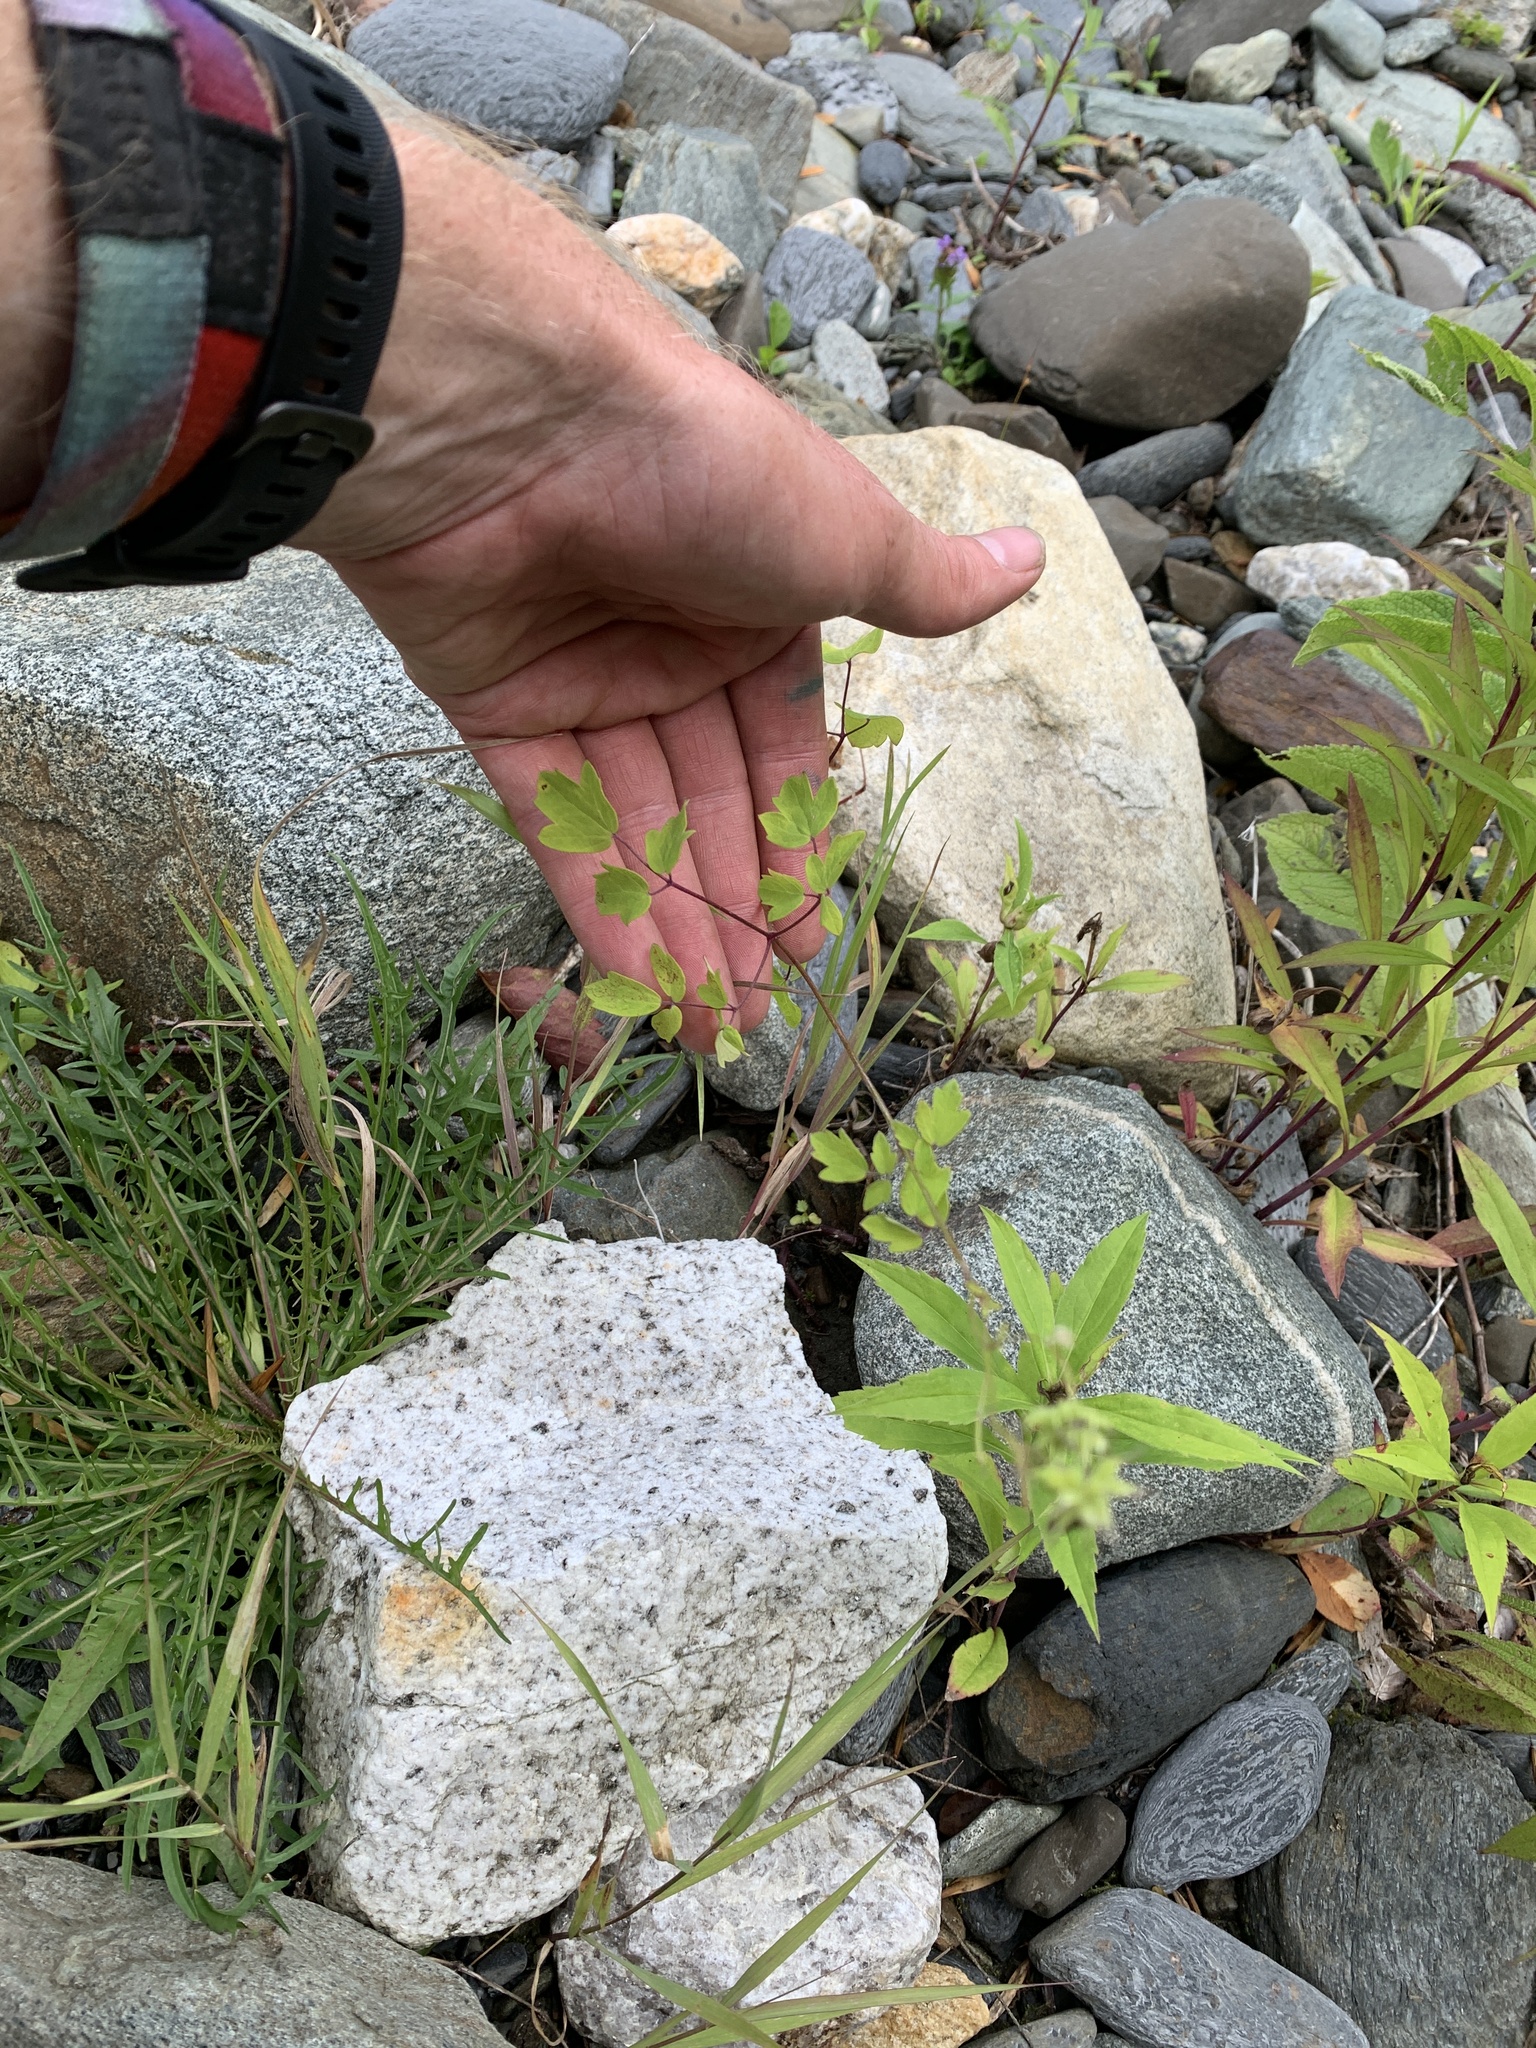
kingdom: Plantae
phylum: Tracheophyta
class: Magnoliopsida
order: Ranunculales
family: Ranunculaceae
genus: Thalictrum
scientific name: Thalictrum pubescens
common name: King-of-the-meadow
